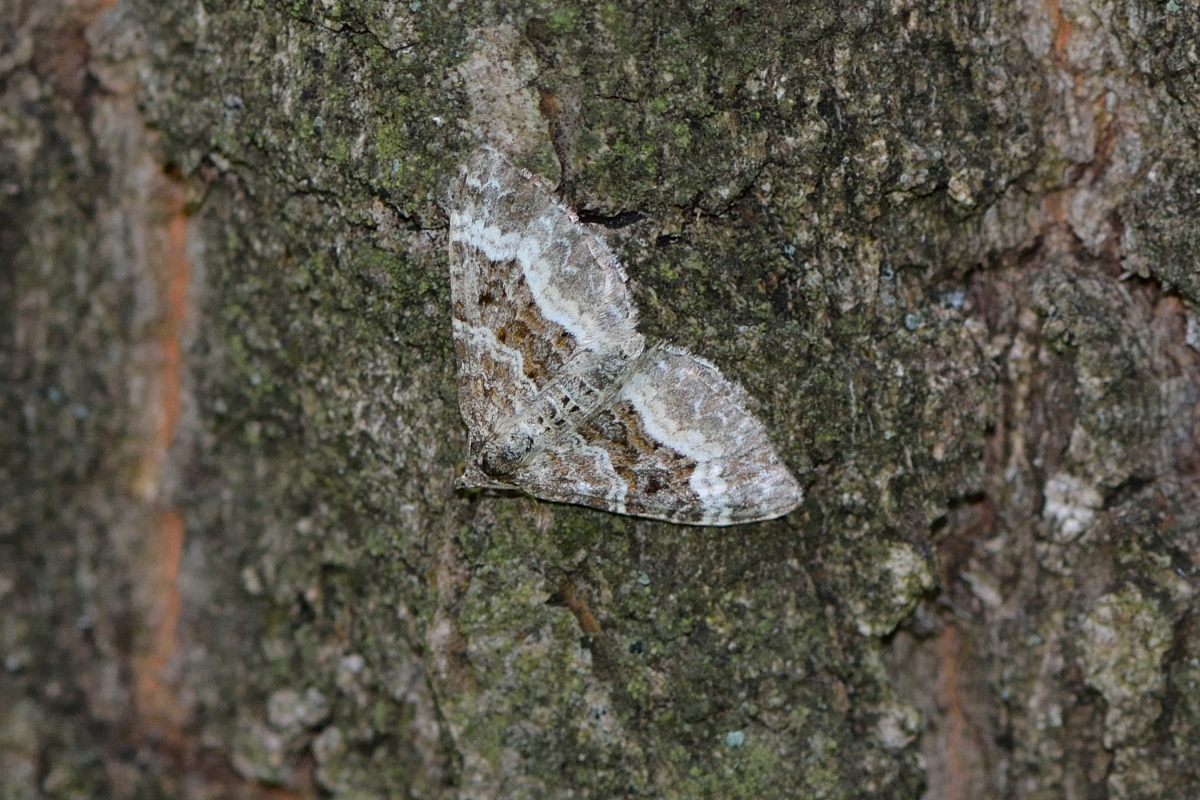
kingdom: Animalia
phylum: Arthropoda
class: Insecta
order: Lepidoptera
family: Geometridae
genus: Epirrhoe
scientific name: Epirrhoe alternata
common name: Common carpet
